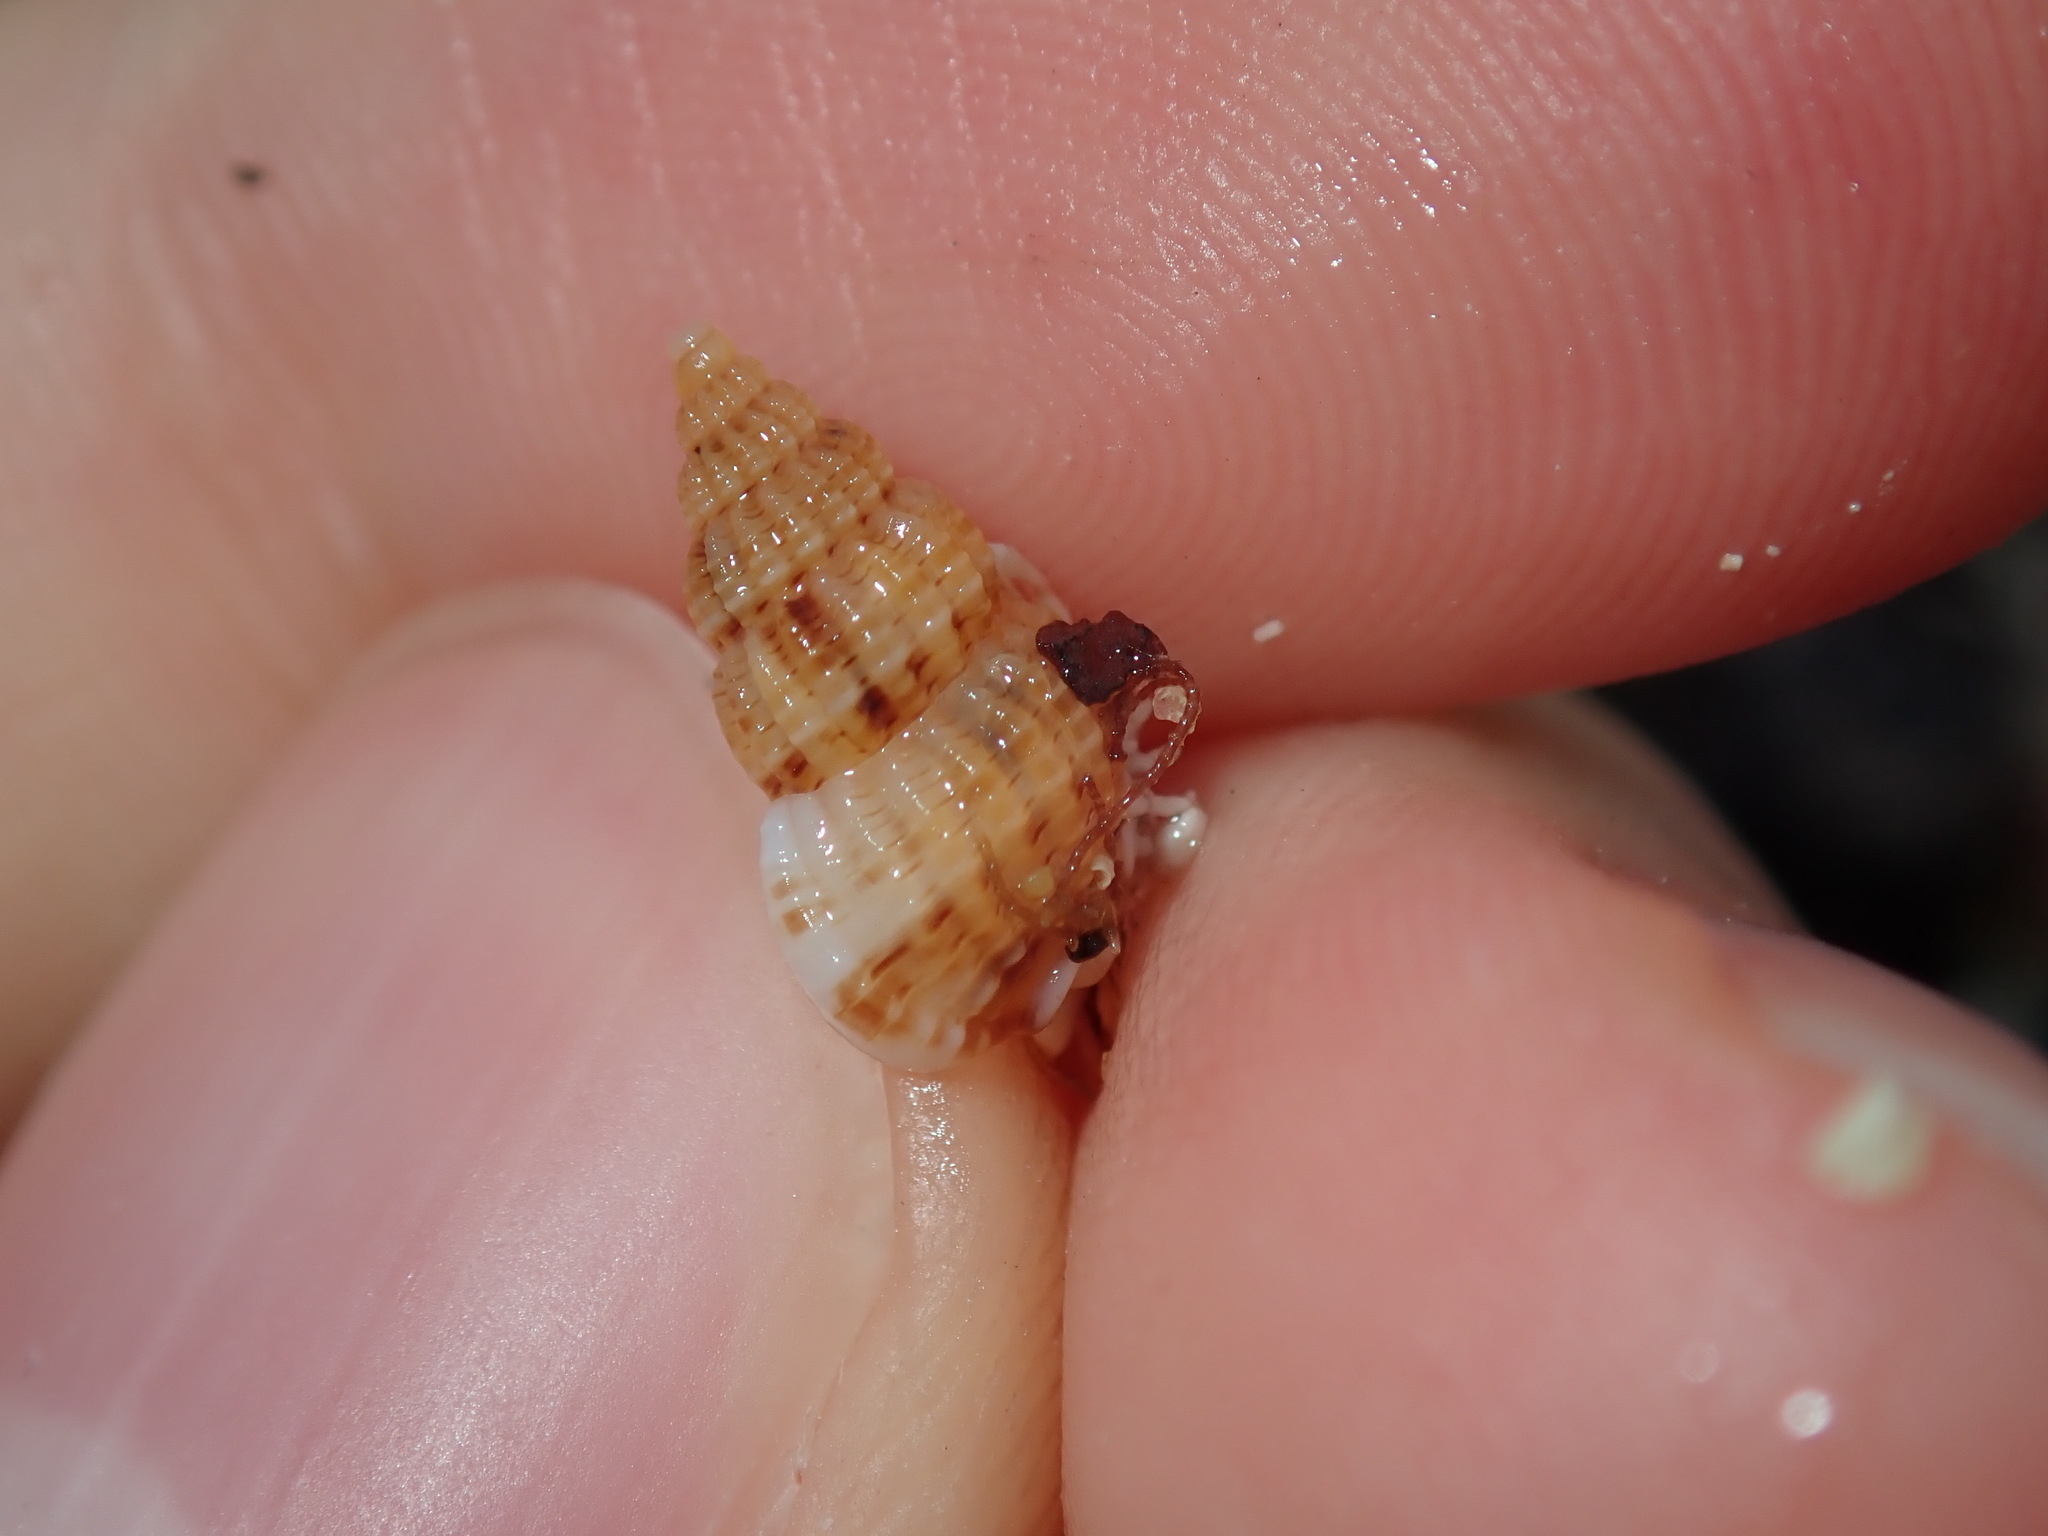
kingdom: Animalia
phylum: Mollusca
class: Gastropoda
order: Neogastropoda
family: Nassariidae
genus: Reticunassa
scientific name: Reticunassa paupera
